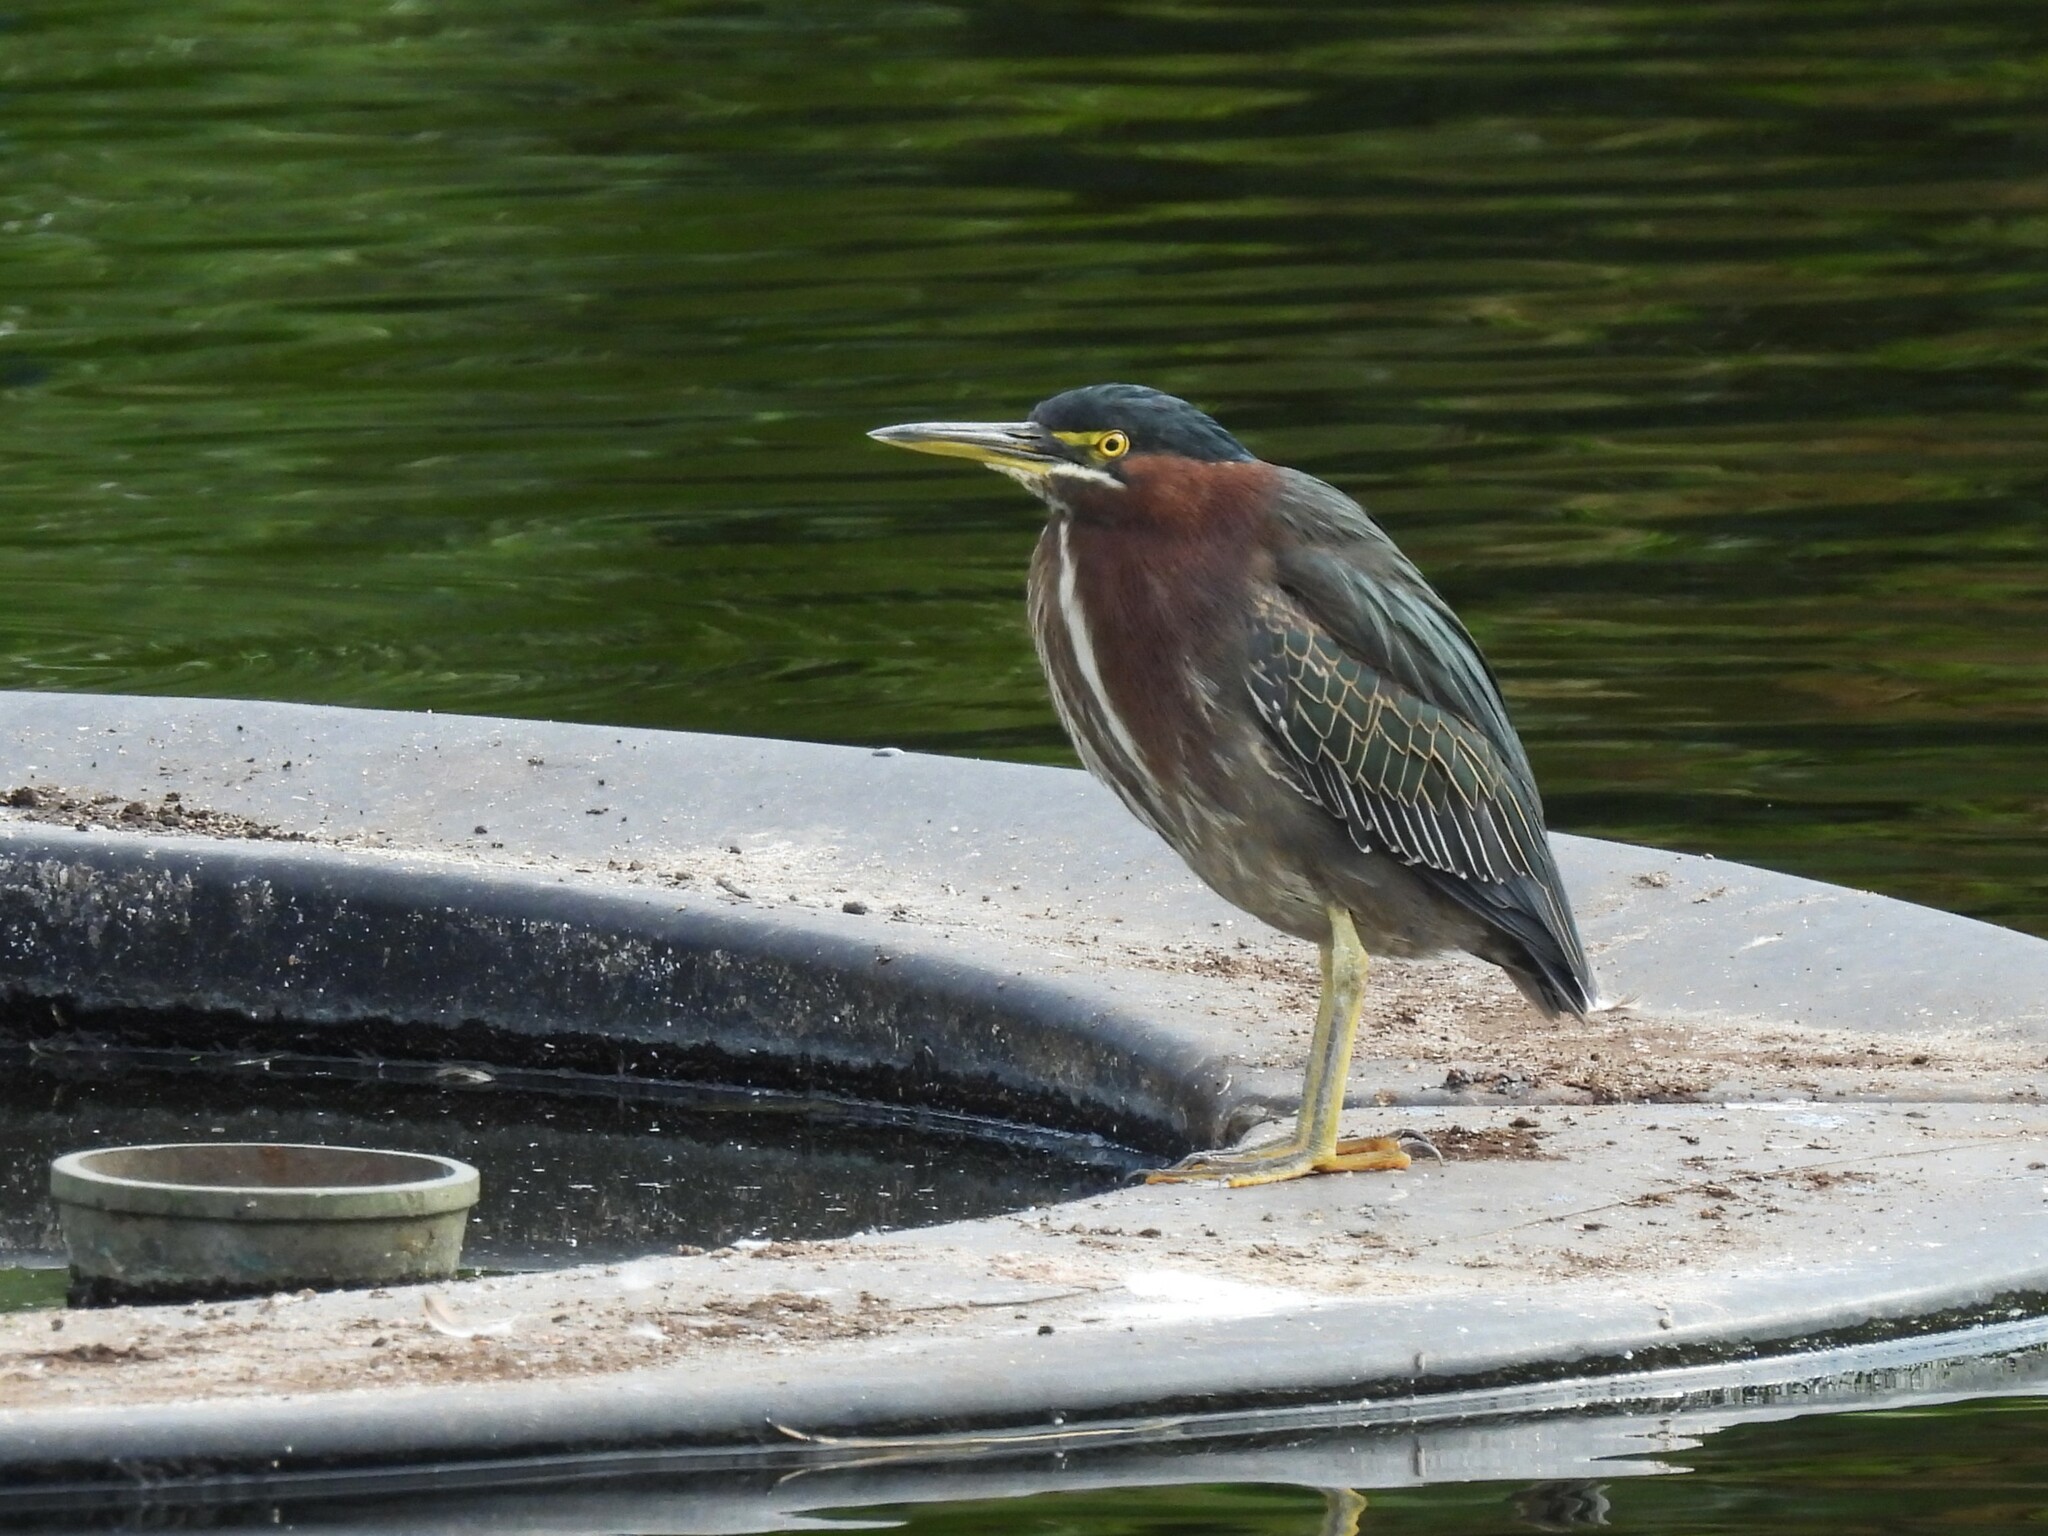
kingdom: Animalia
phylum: Chordata
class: Aves
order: Pelecaniformes
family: Ardeidae
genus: Butorides
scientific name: Butorides virescens
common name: Green heron
